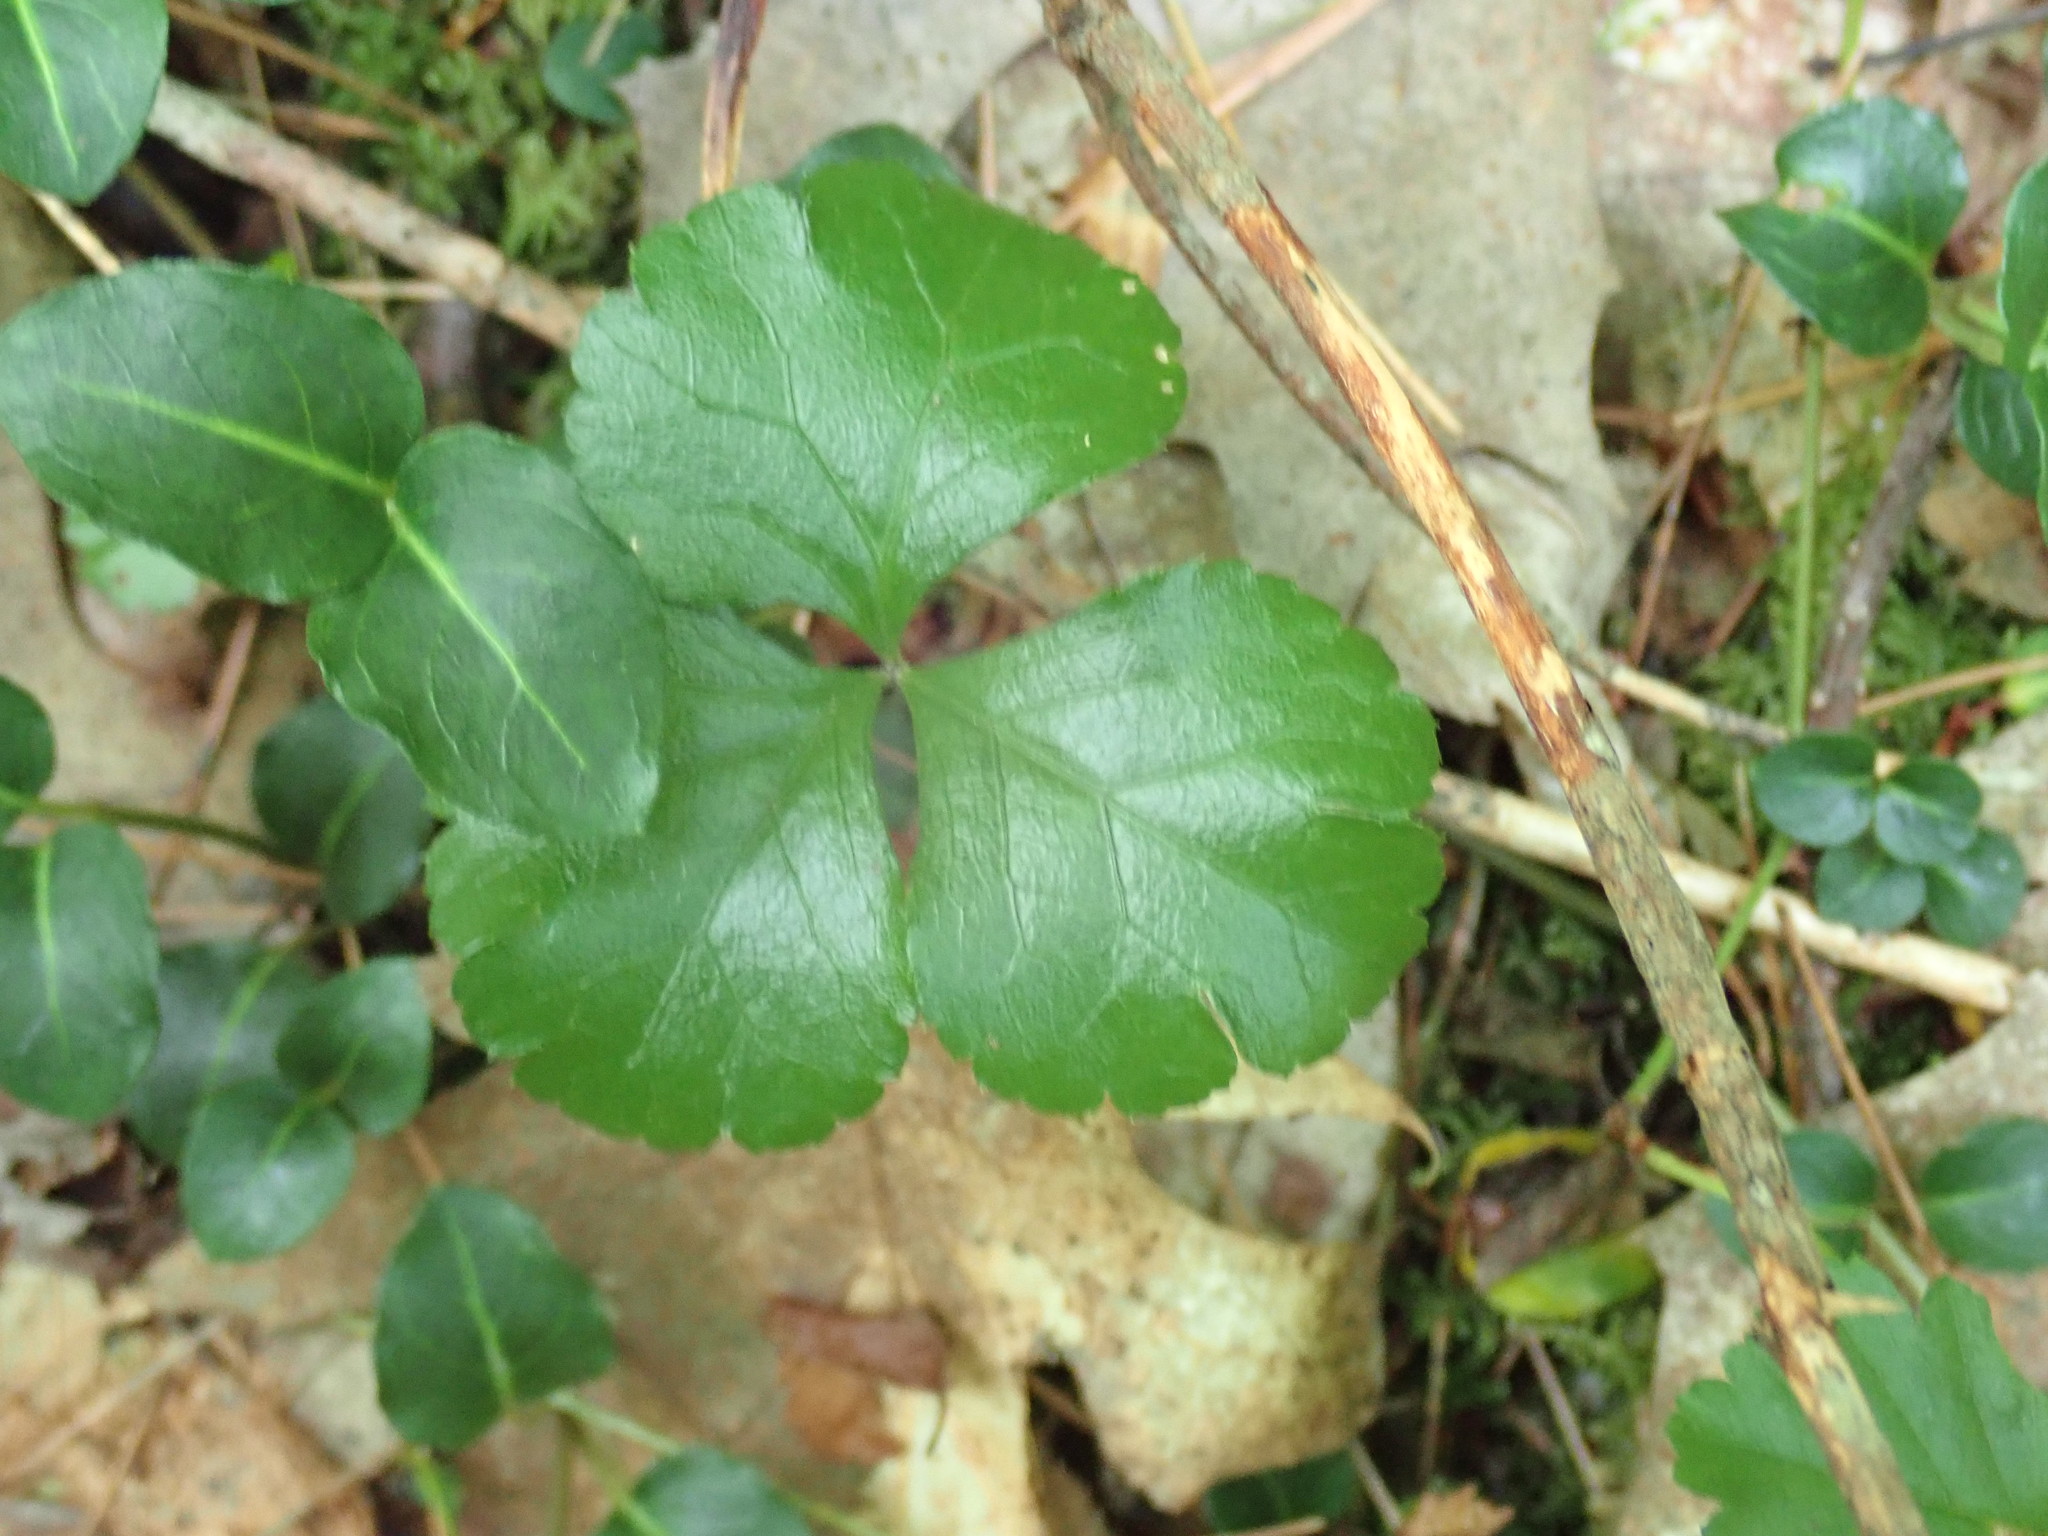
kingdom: Plantae
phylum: Tracheophyta
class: Magnoliopsida
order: Ranunculales
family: Ranunculaceae
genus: Coptis
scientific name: Coptis trifolia
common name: Canker-root
